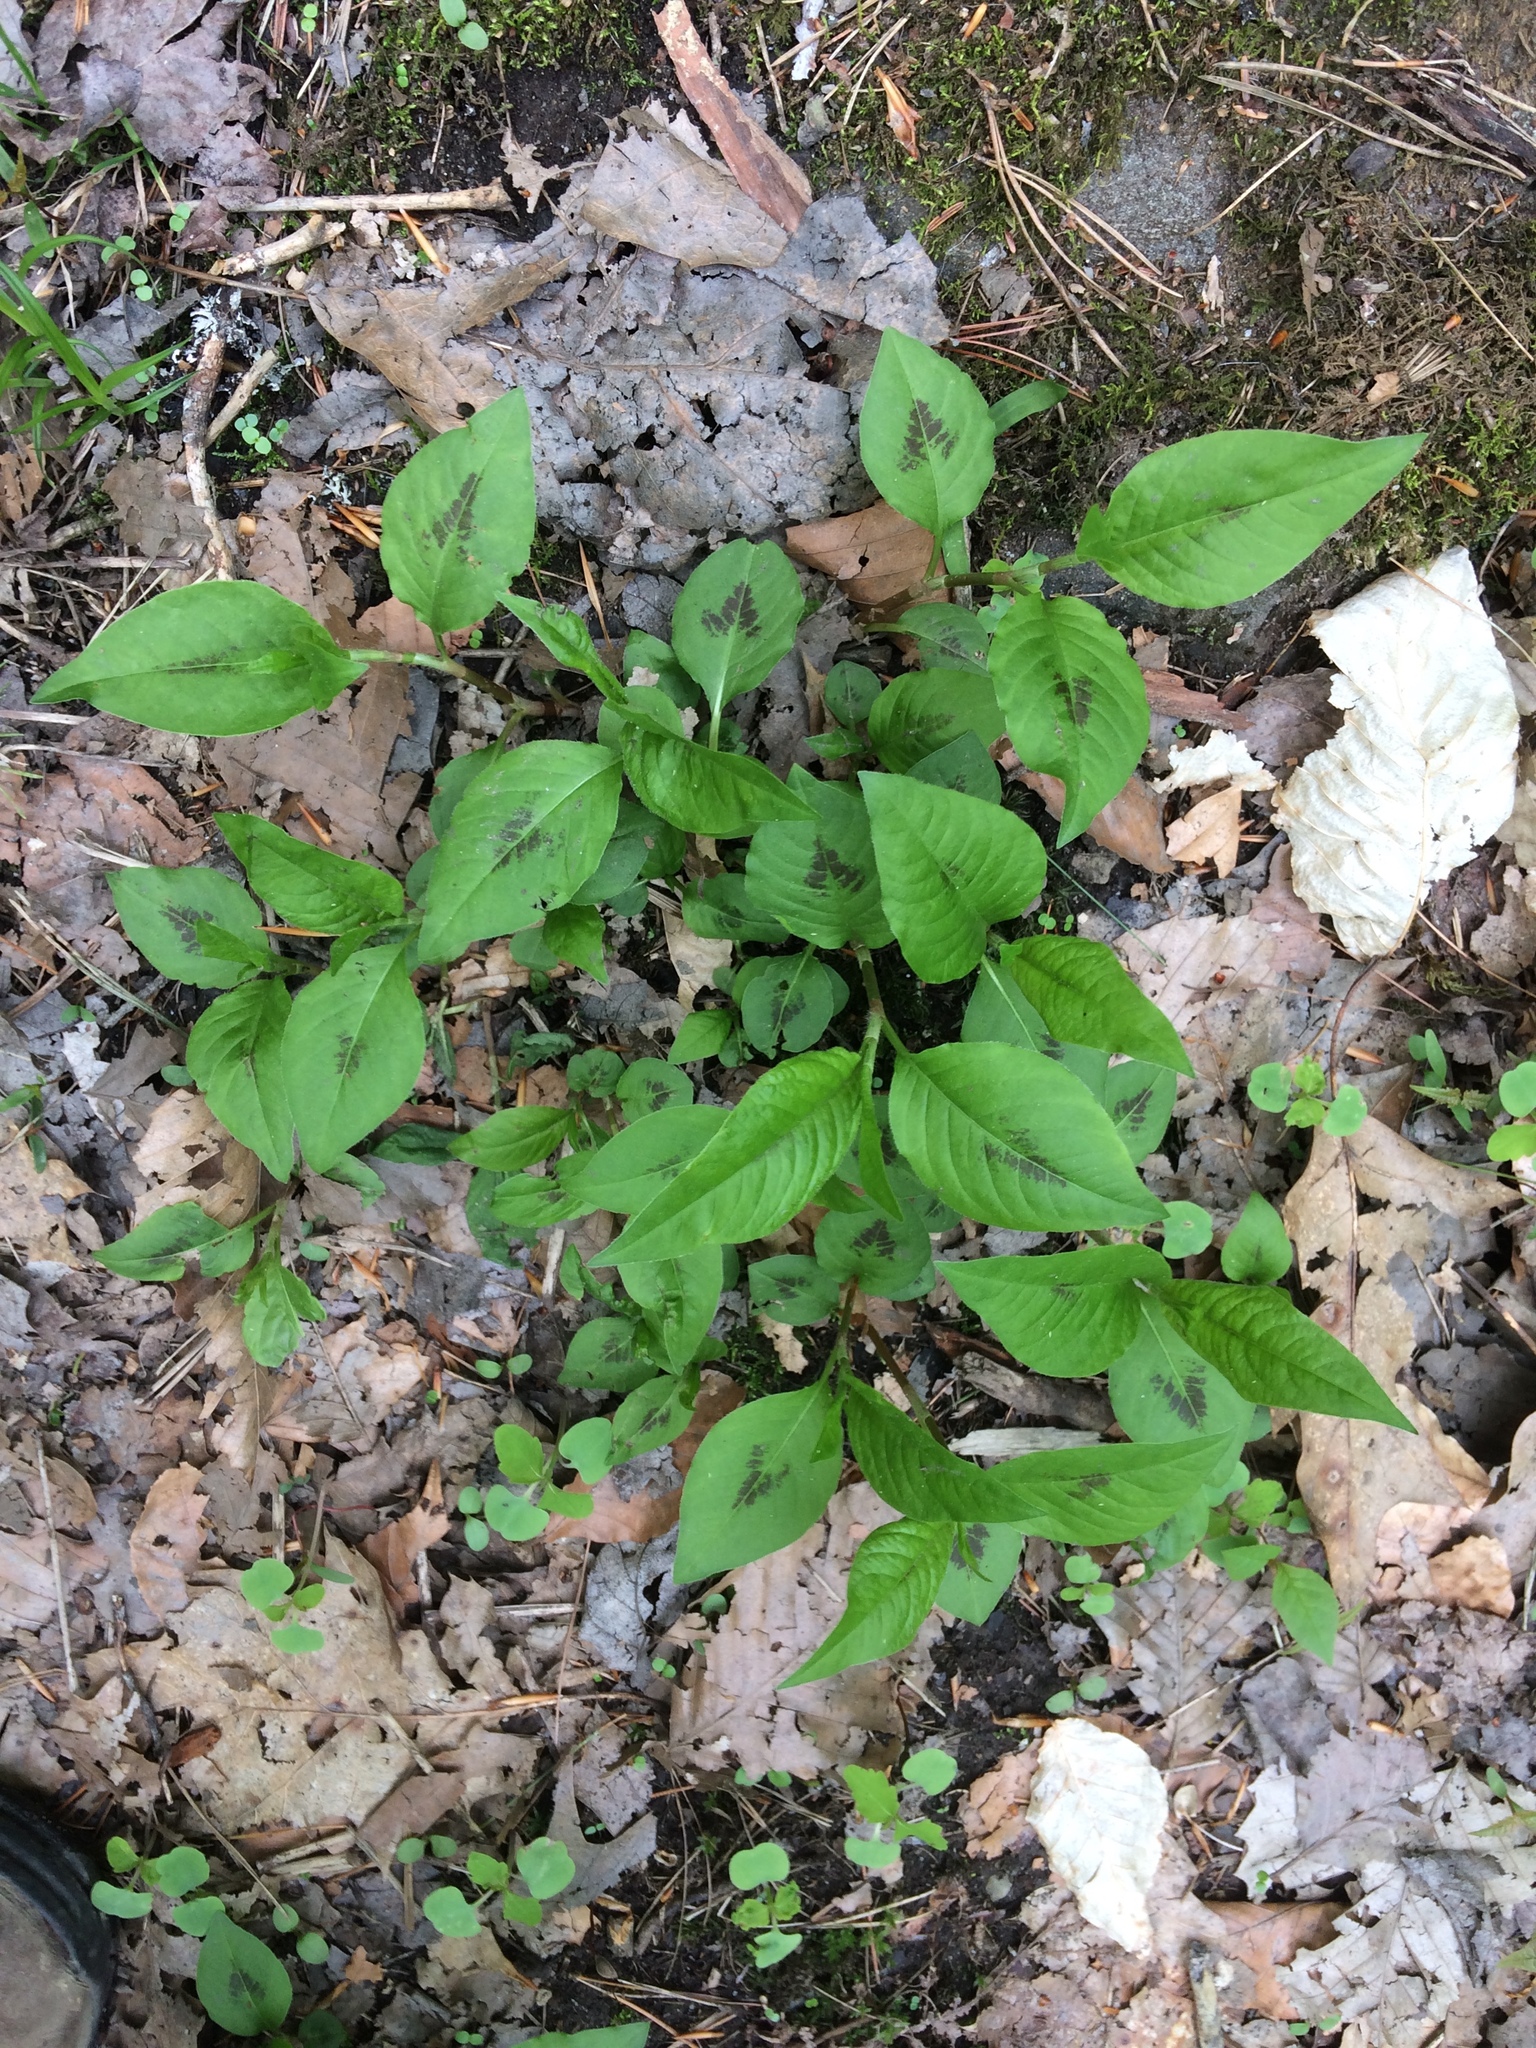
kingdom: Plantae
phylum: Tracheophyta
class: Magnoliopsida
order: Caryophyllales
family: Polygonaceae
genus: Persicaria
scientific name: Persicaria virginiana
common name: Jumpseed
